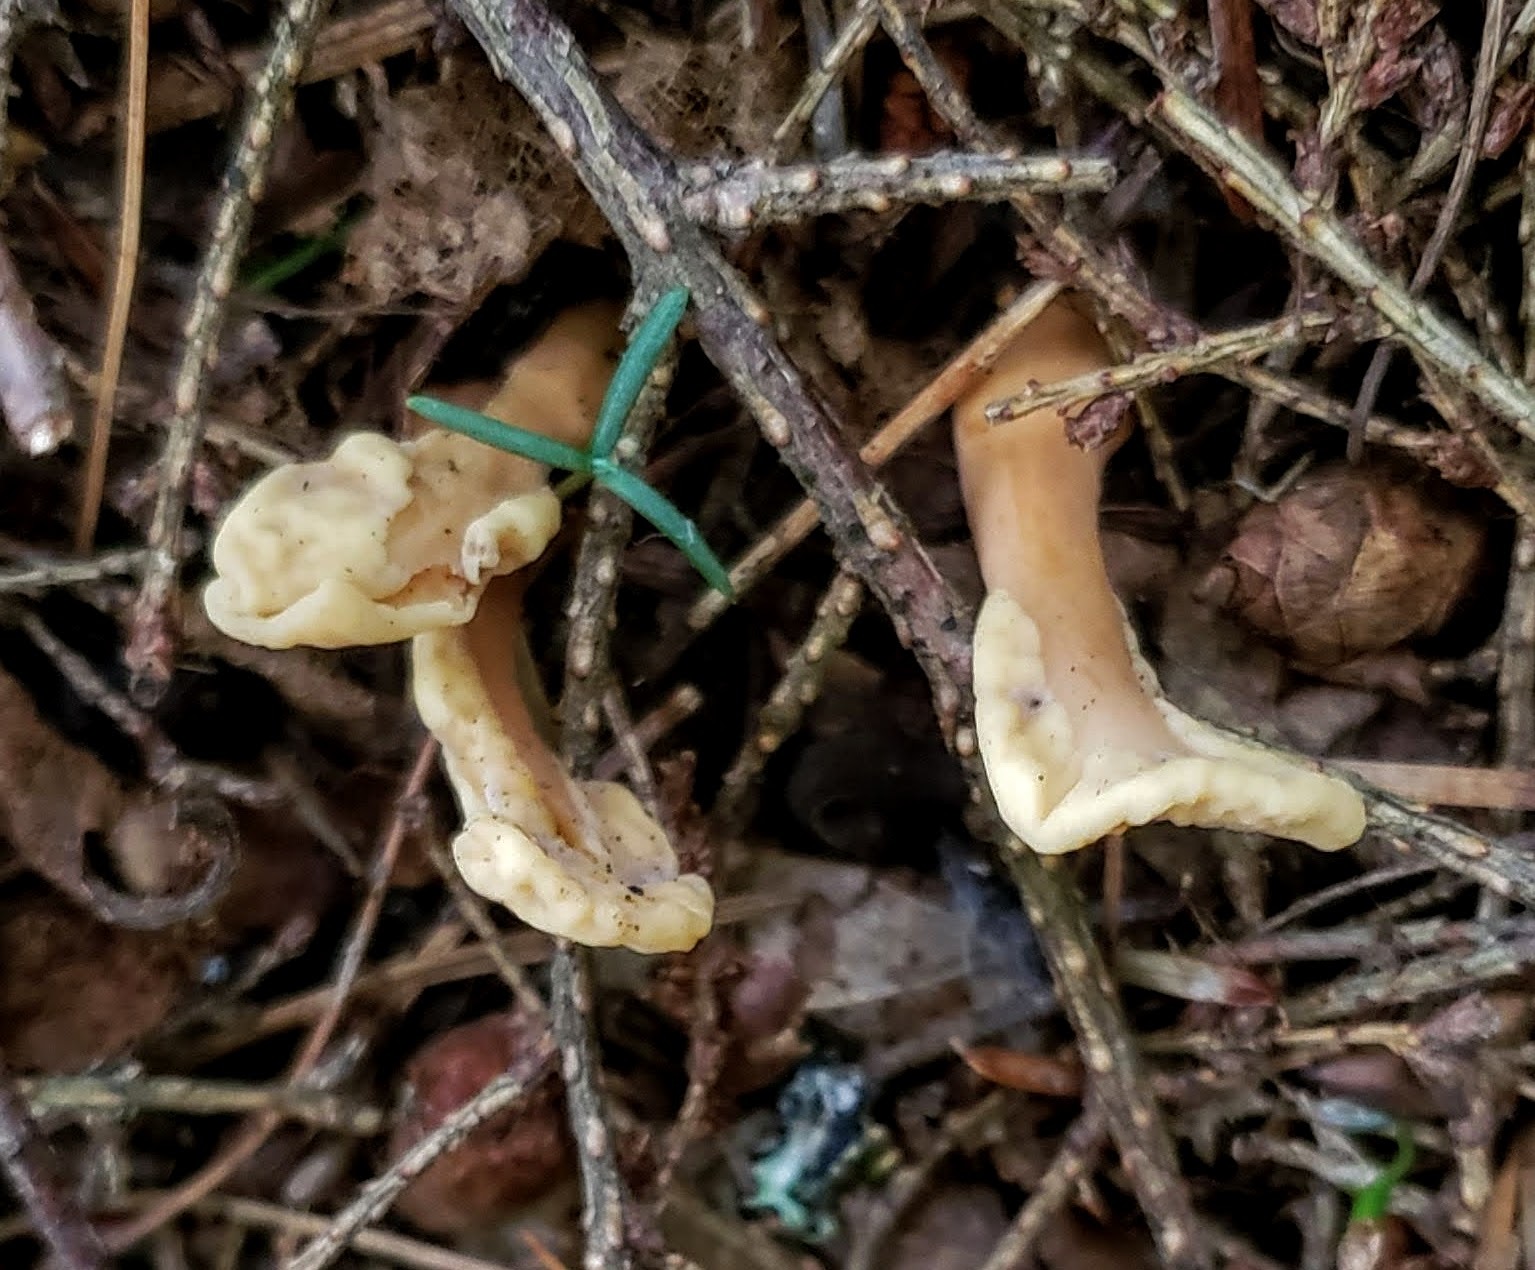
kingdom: Fungi
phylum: Ascomycota
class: Leotiomycetes
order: Rhytismatales
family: Cudoniaceae
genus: Spathulariopsis
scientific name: Spathulariopsis velutipes
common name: Velvet-foot fairy fan
